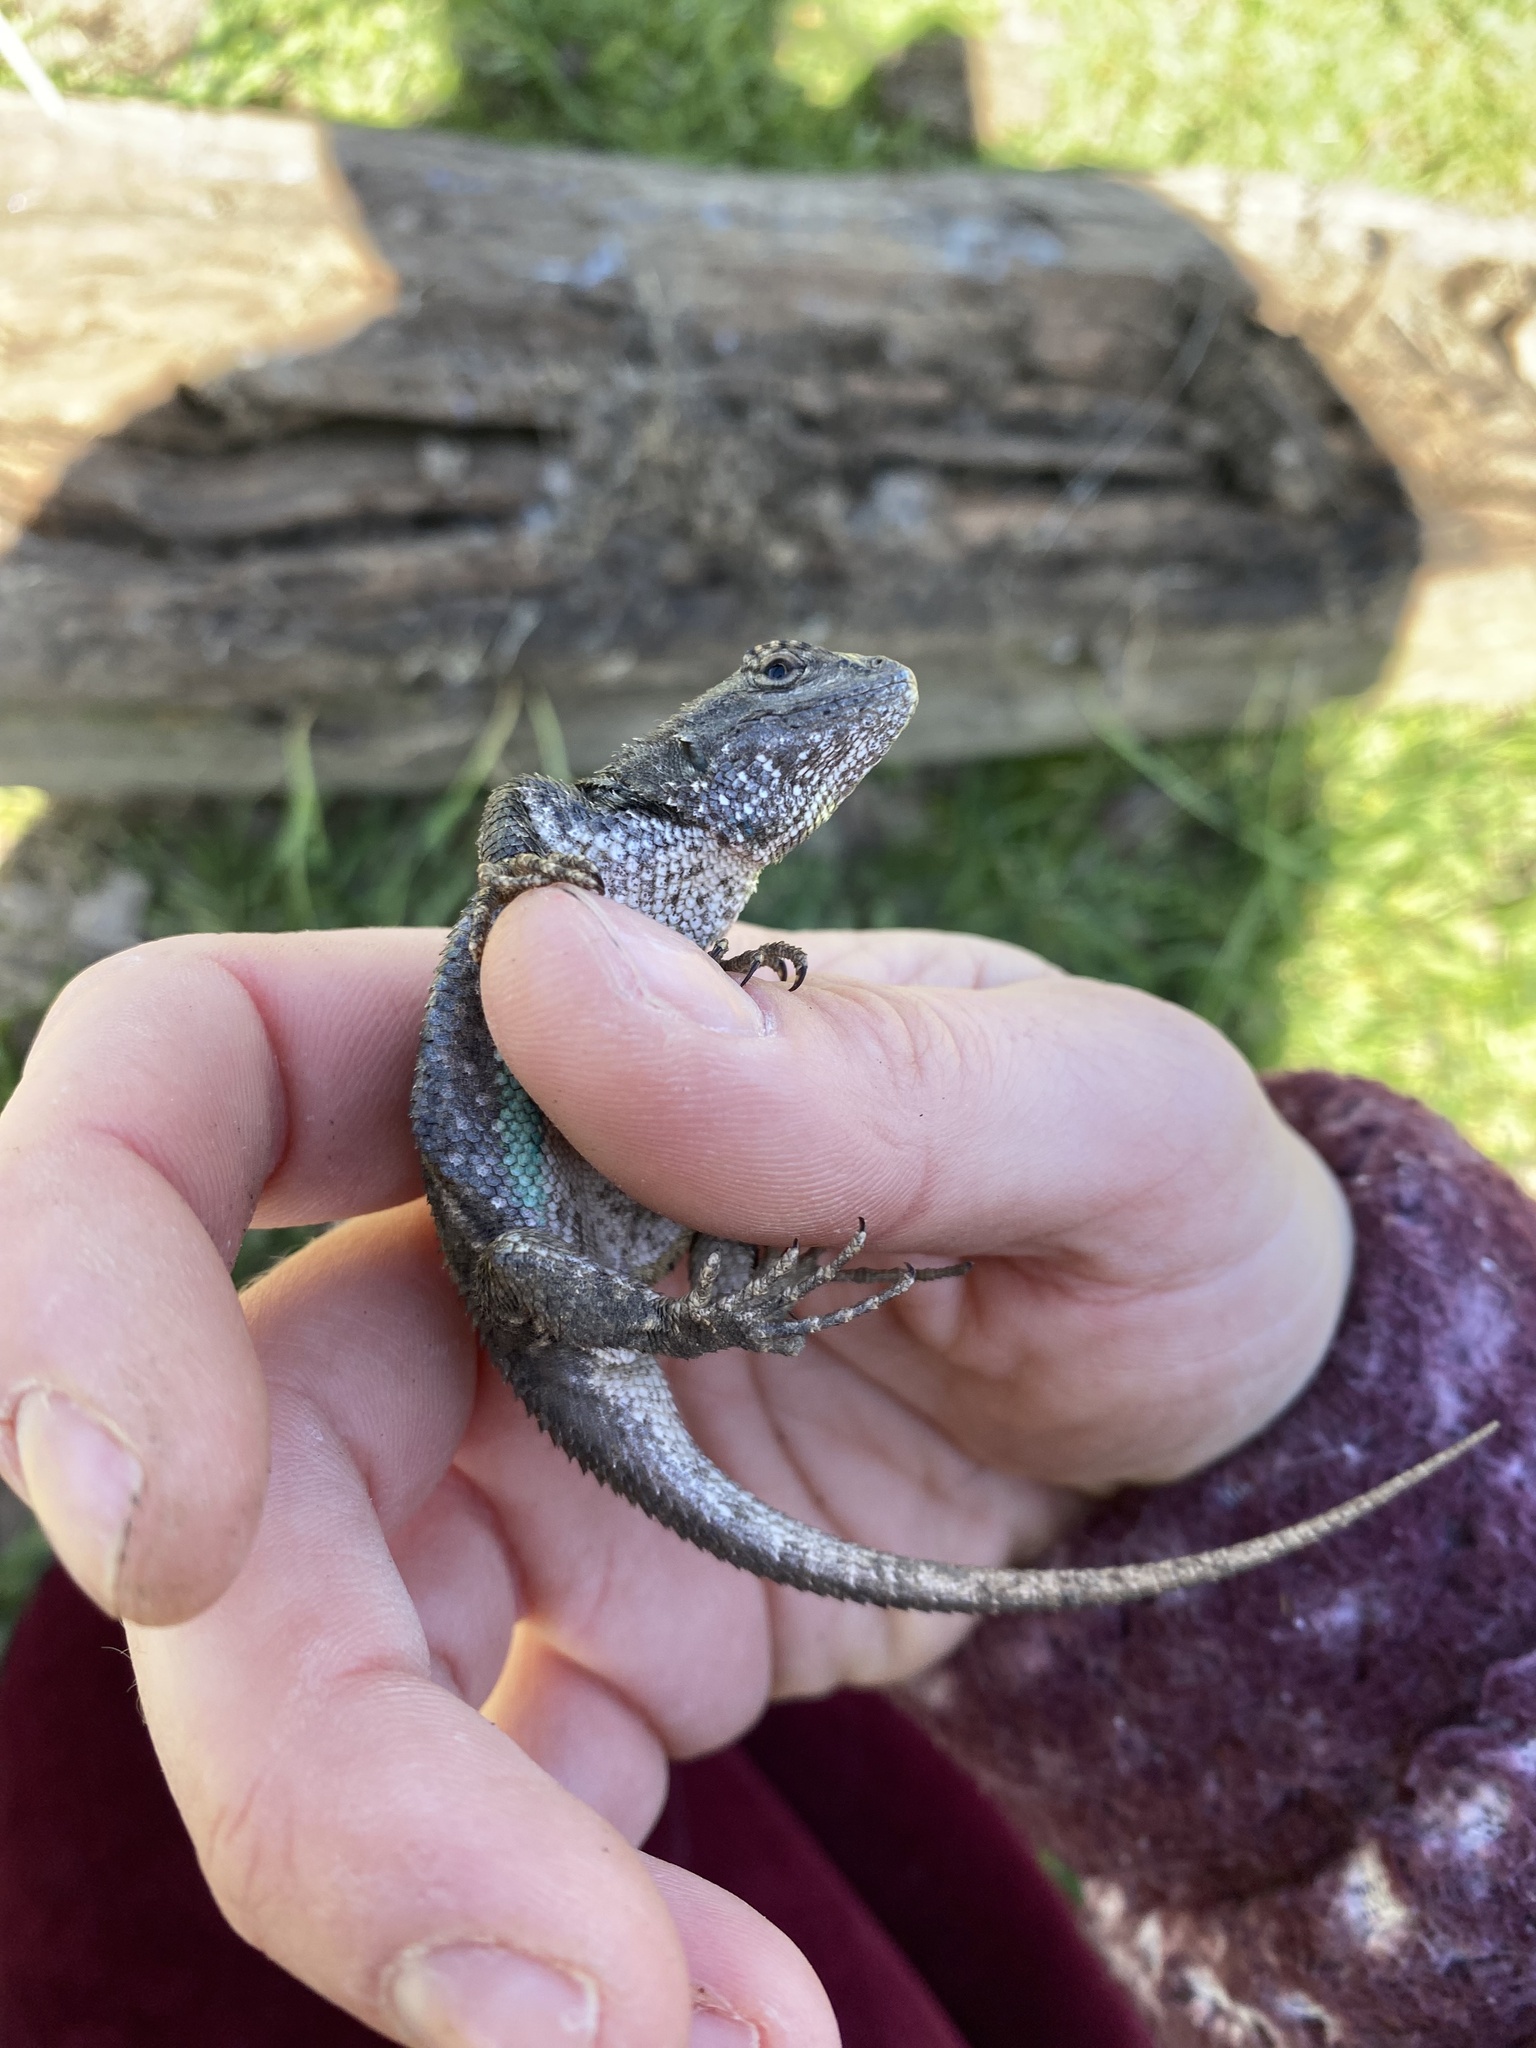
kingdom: Animalia
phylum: Chordata
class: Squamata
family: Phrynosomatidae
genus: Sceloporus
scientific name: Sceloporus occidentalis
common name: Western fence lizard
